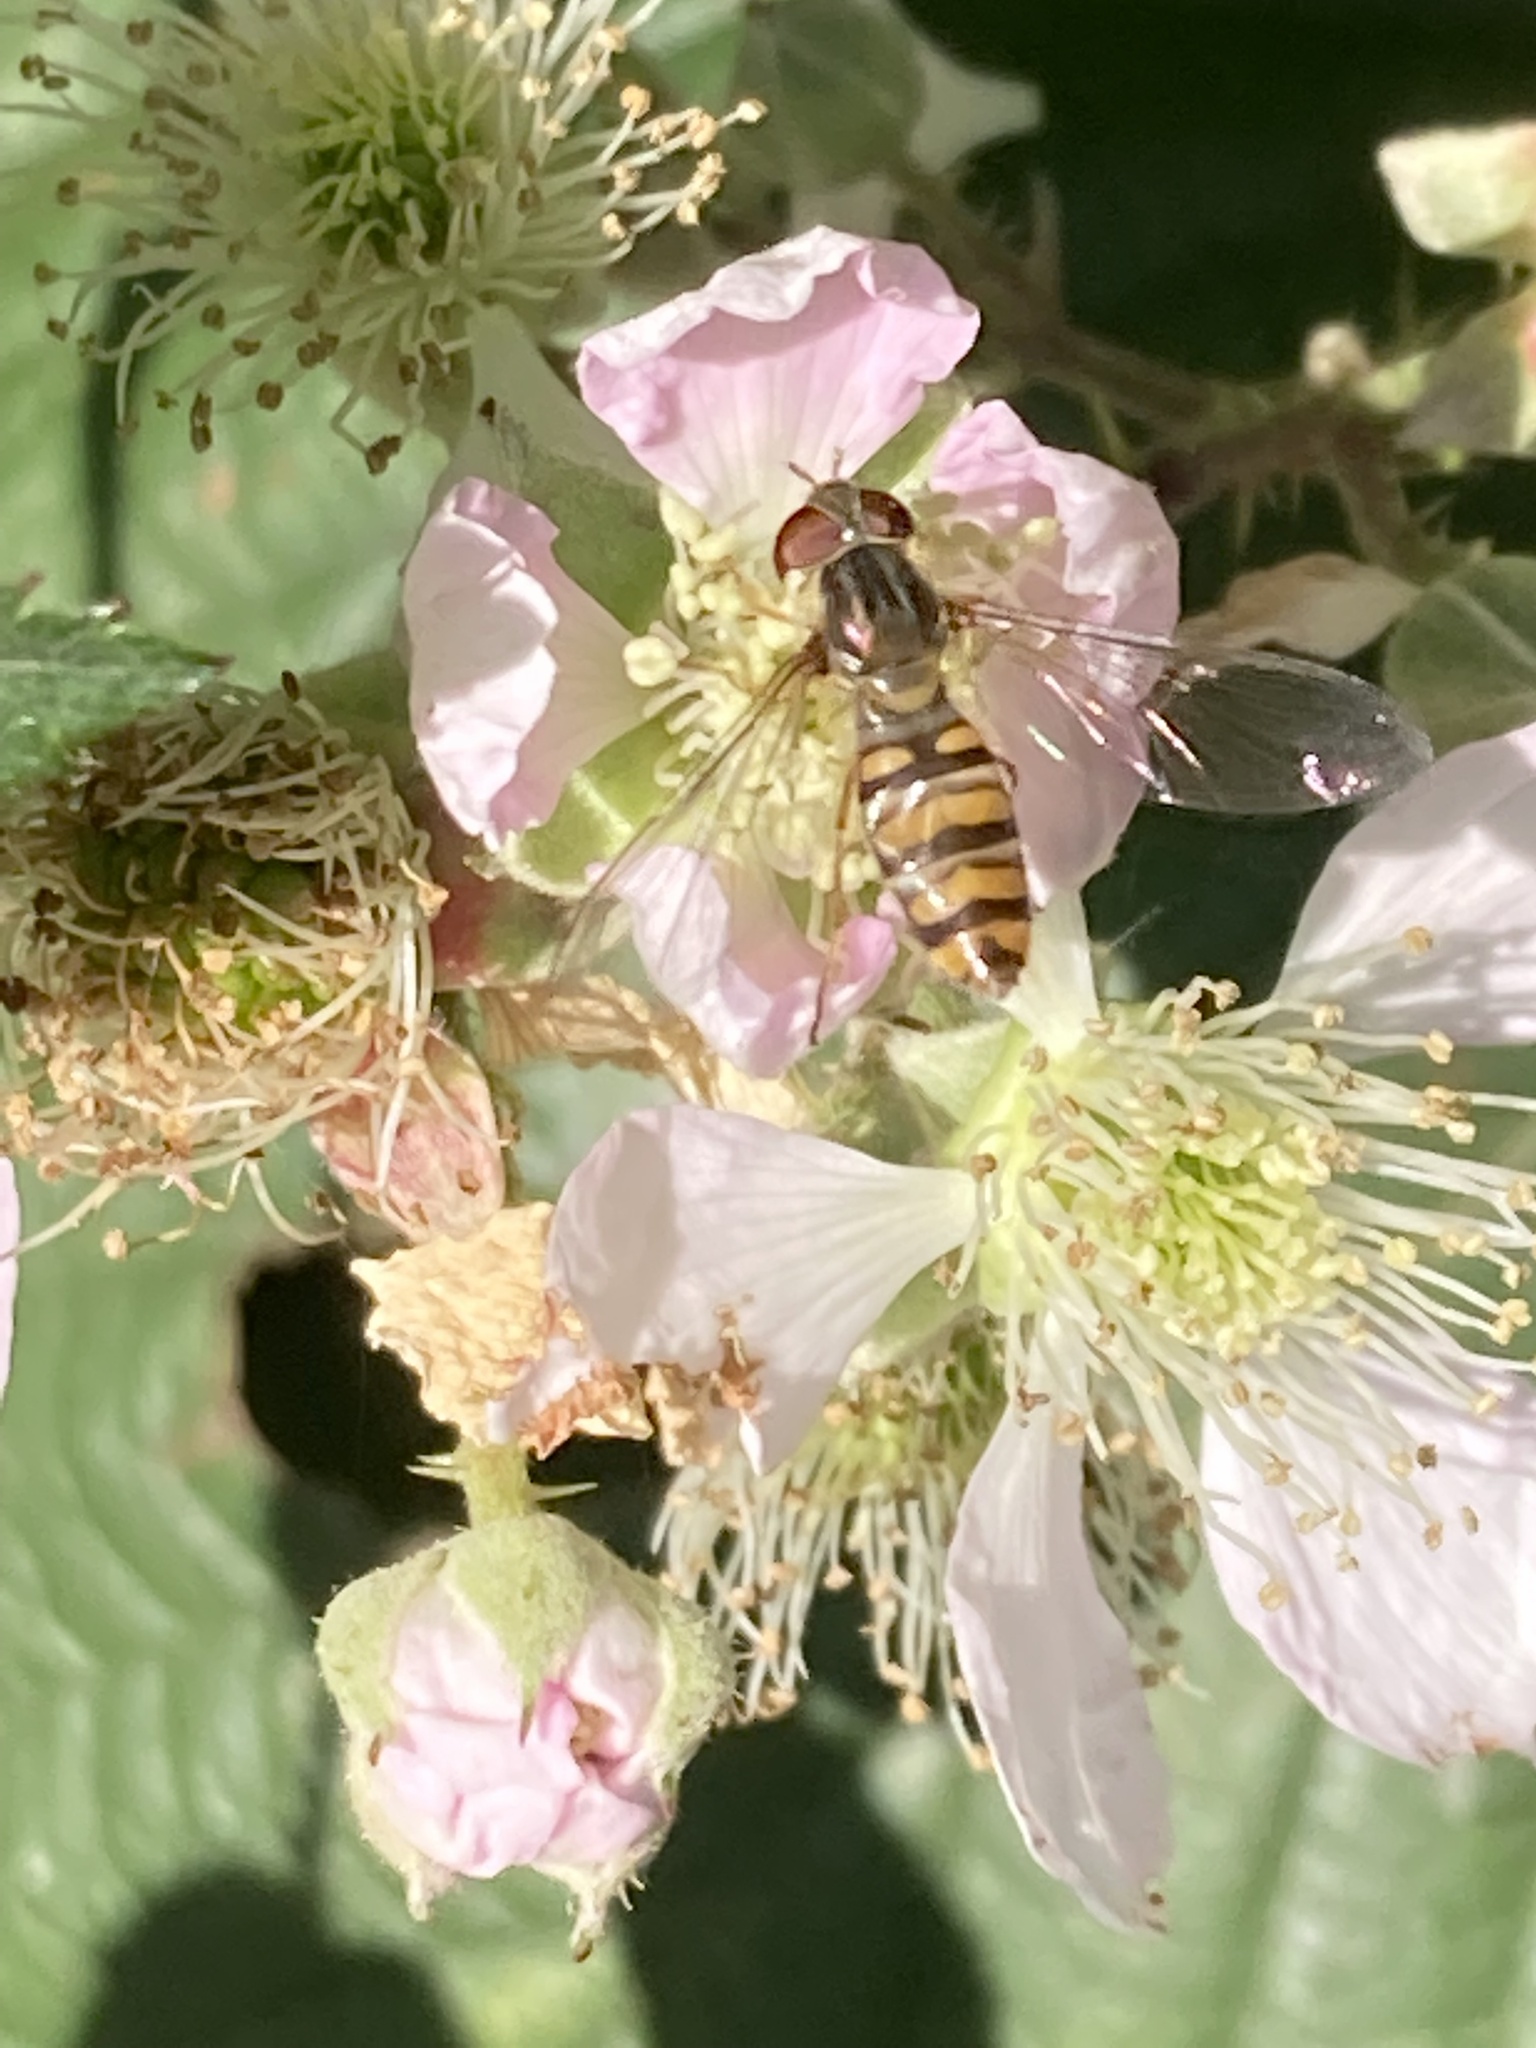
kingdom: Animalia
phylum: Arthropoda
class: Insecta
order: Diptera
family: Syrphidae
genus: Episyrphus
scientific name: Episyrphus balteatus
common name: Marmalade hoverfly
